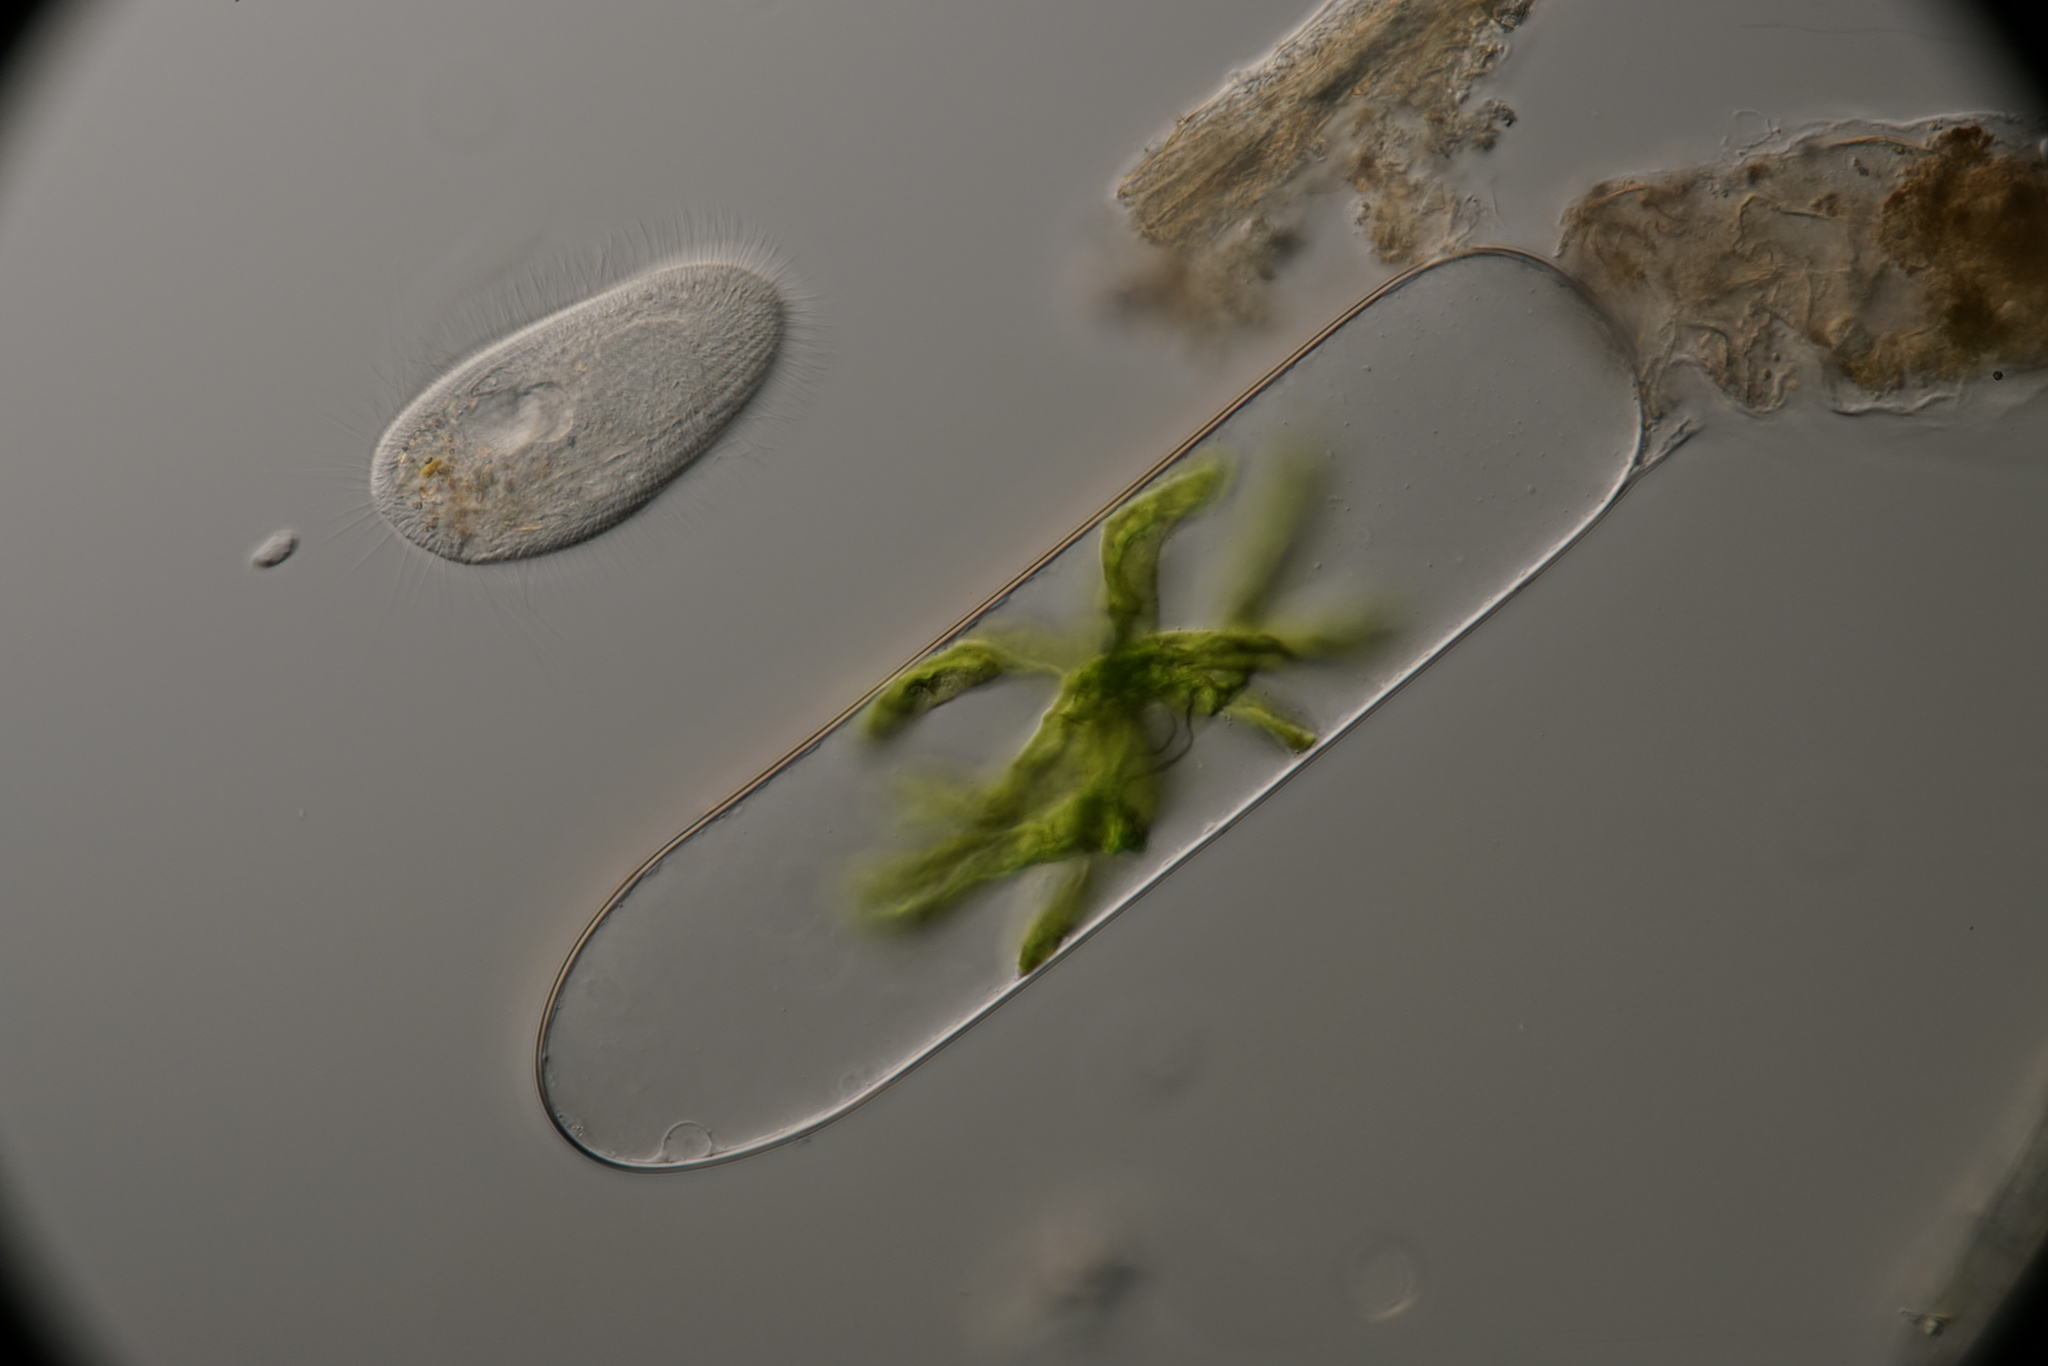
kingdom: Plantae
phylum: Charophyta
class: Zygnematophyceae
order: Zygnematales
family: Zygnemataceae
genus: Spirogyra
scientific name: Spirogyra
